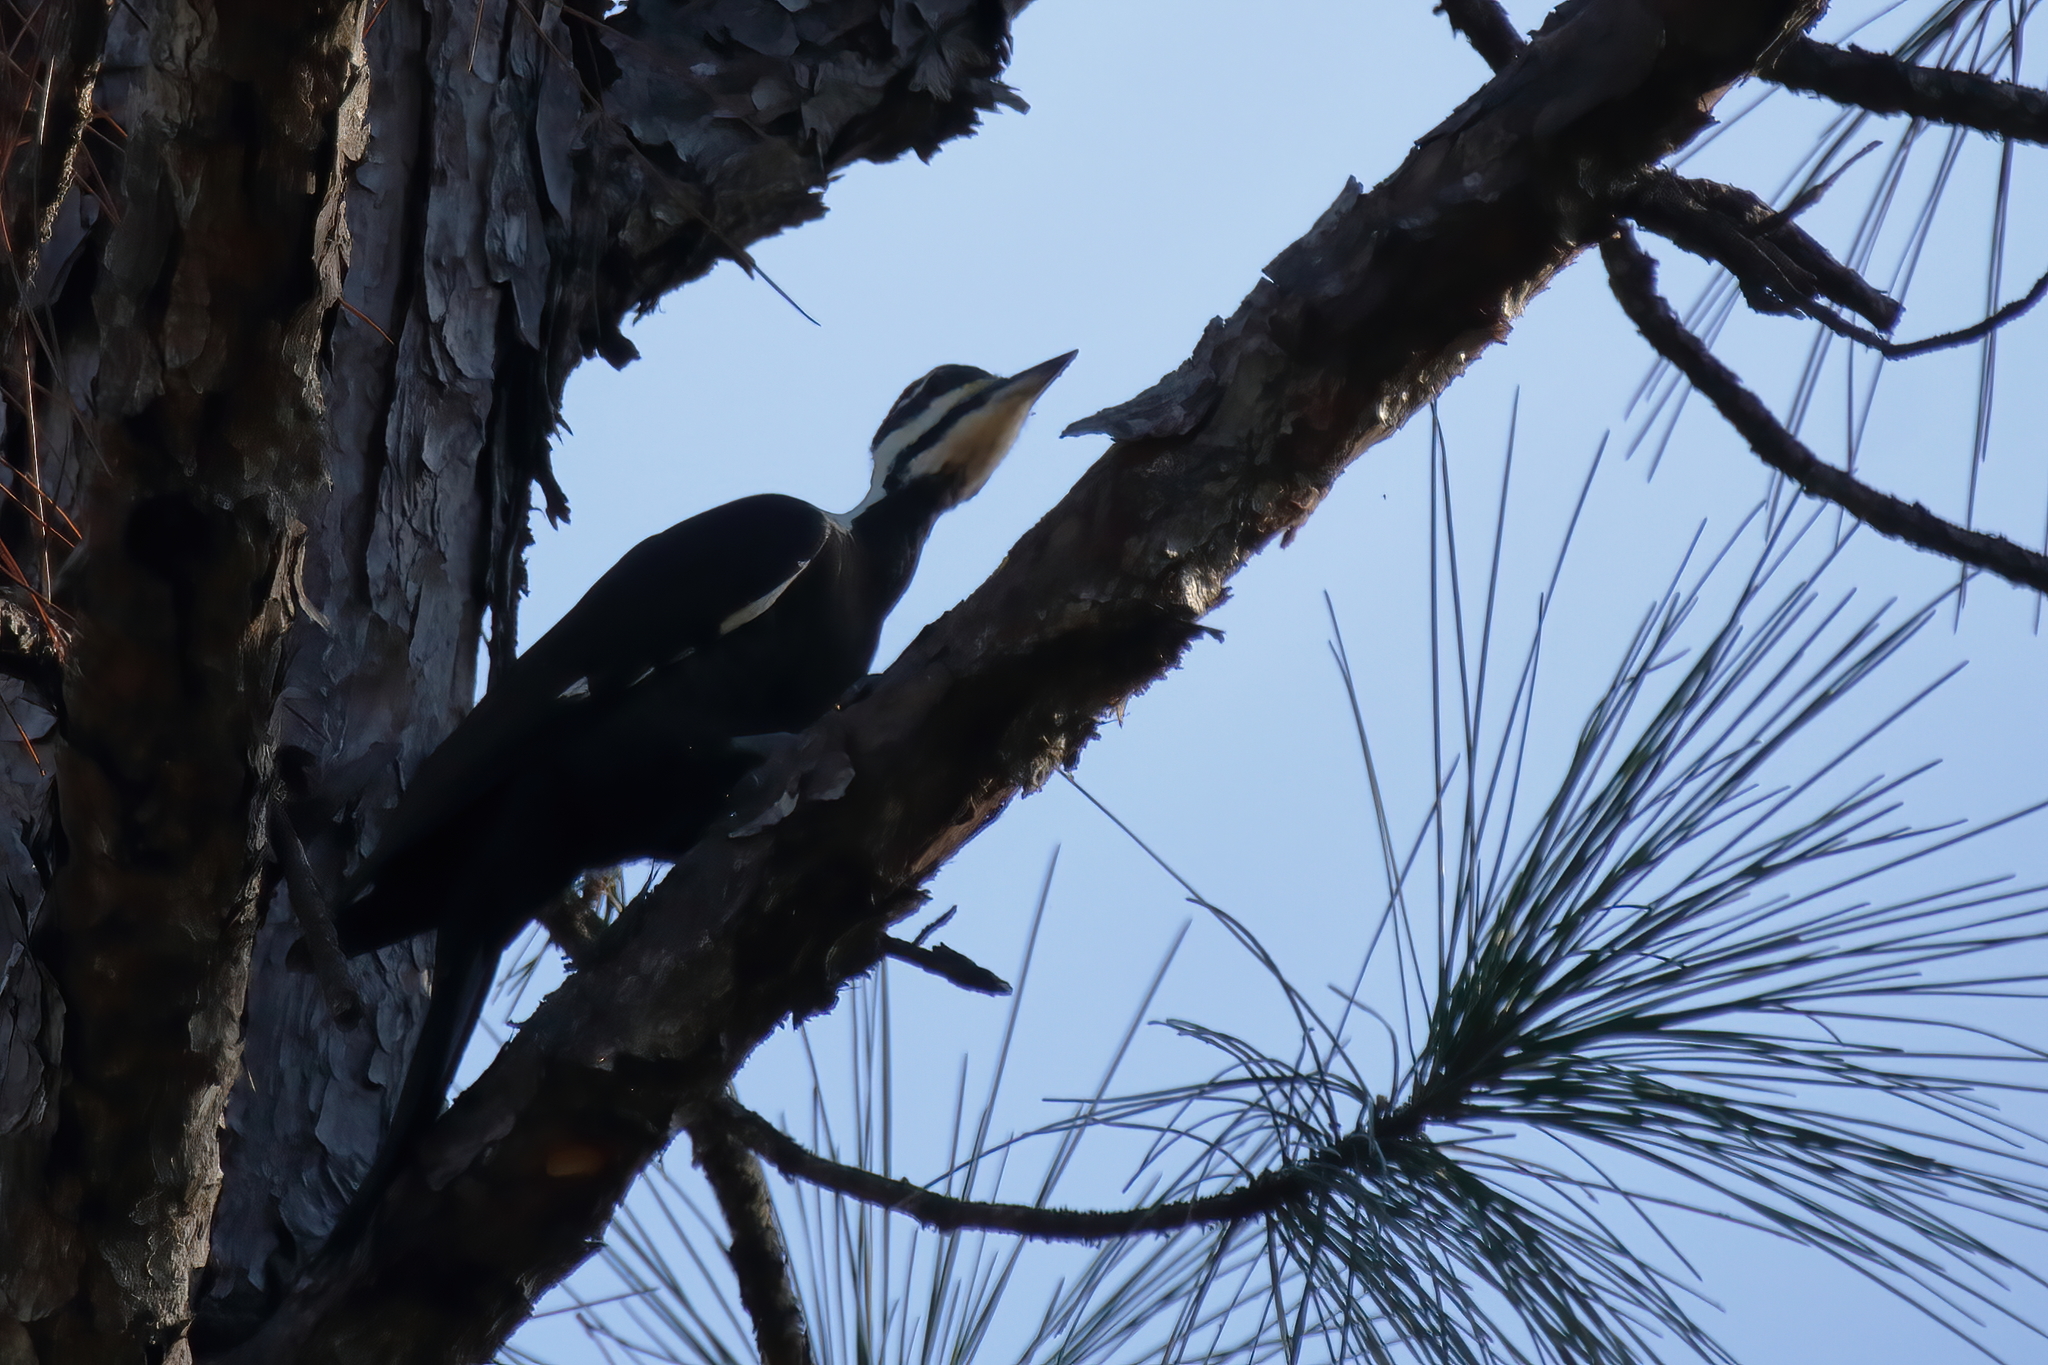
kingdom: Animalia
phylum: Chordata
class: Aves
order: Piciformes
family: Picidae
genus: Dryocopus
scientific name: Dryocopus pileatus
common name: Pileated woodpecker
